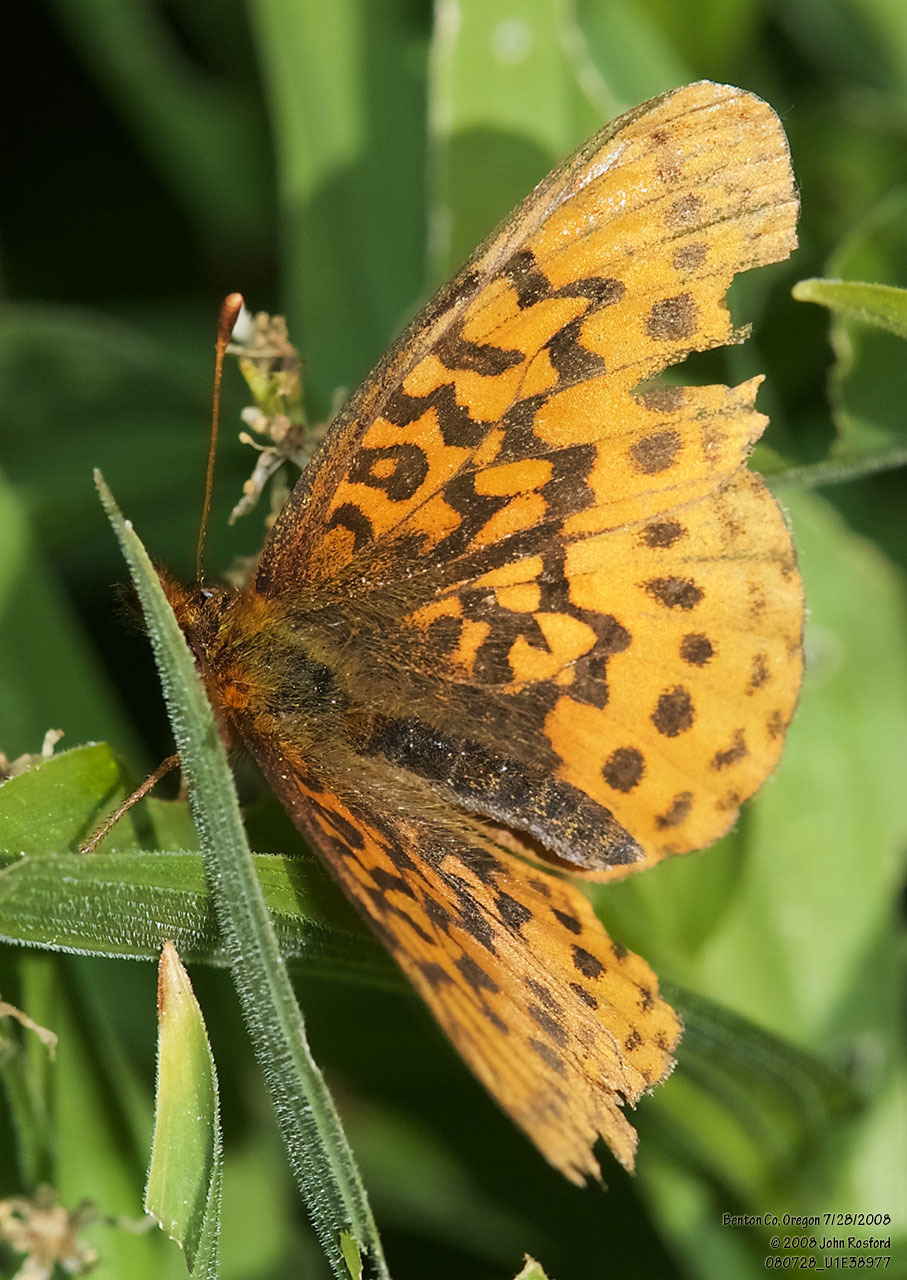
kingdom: Animalia
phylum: Arthropoda
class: Insecta
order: Lepidoptera
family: Nymphalidae
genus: Boloria
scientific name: Boloria epithore
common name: Pacific fritillary
